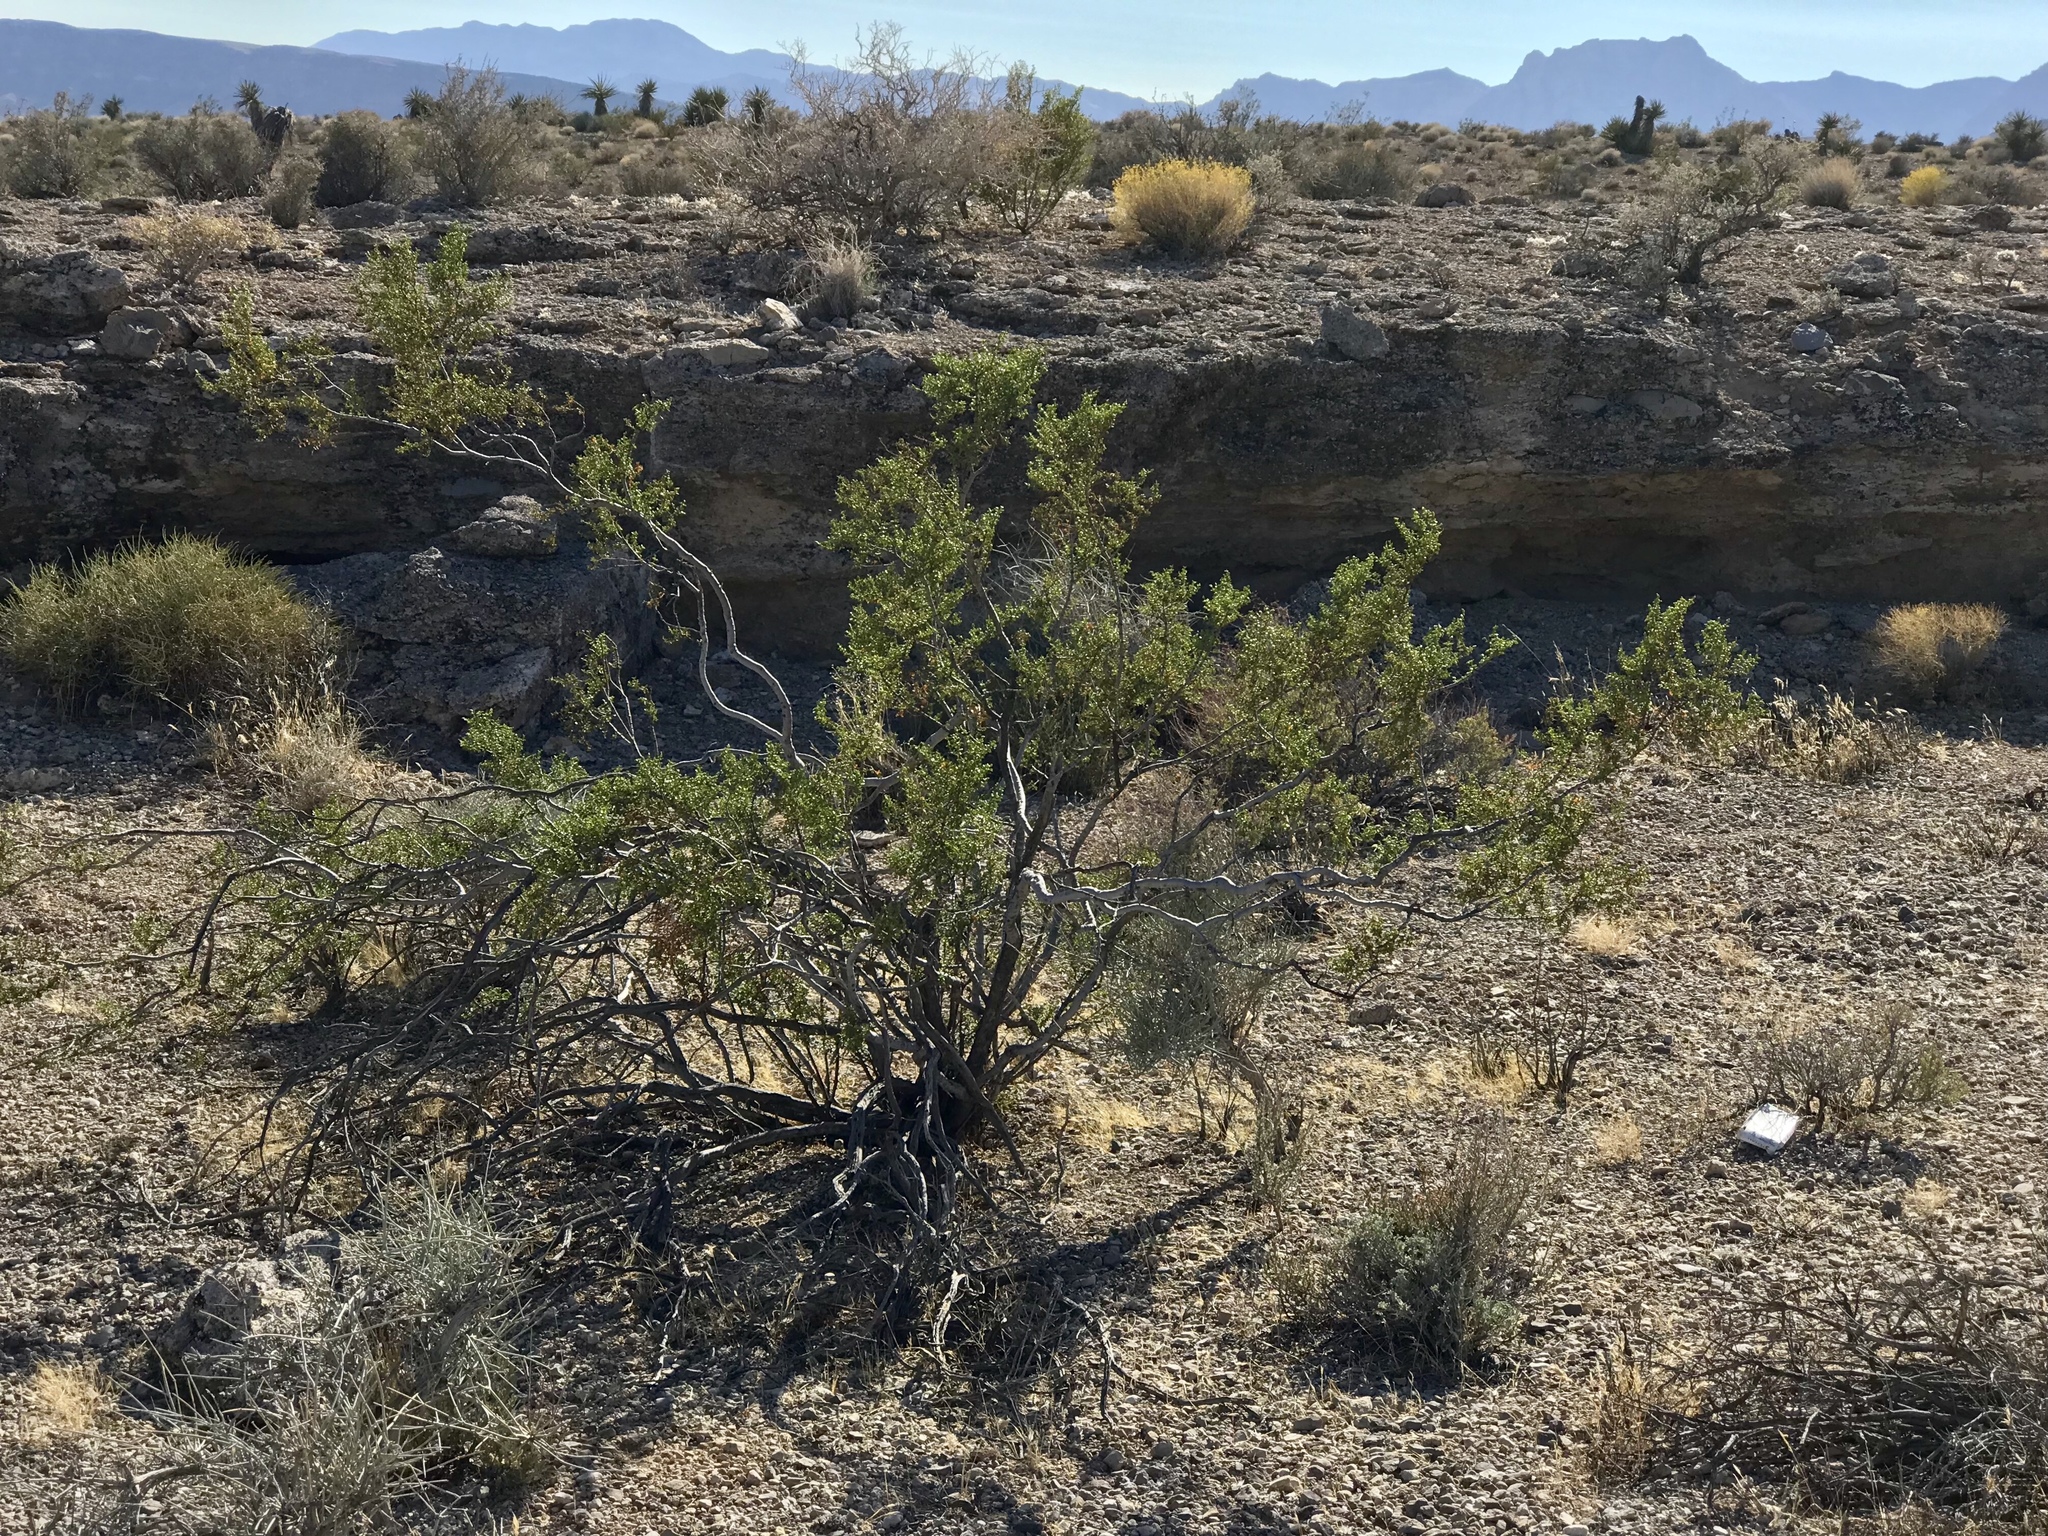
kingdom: Plantae
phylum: Tracheophyta
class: Magnoliopsida
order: Zygophyllales
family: Zygophyllaceae
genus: Larrea
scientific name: Larrea tridentata
